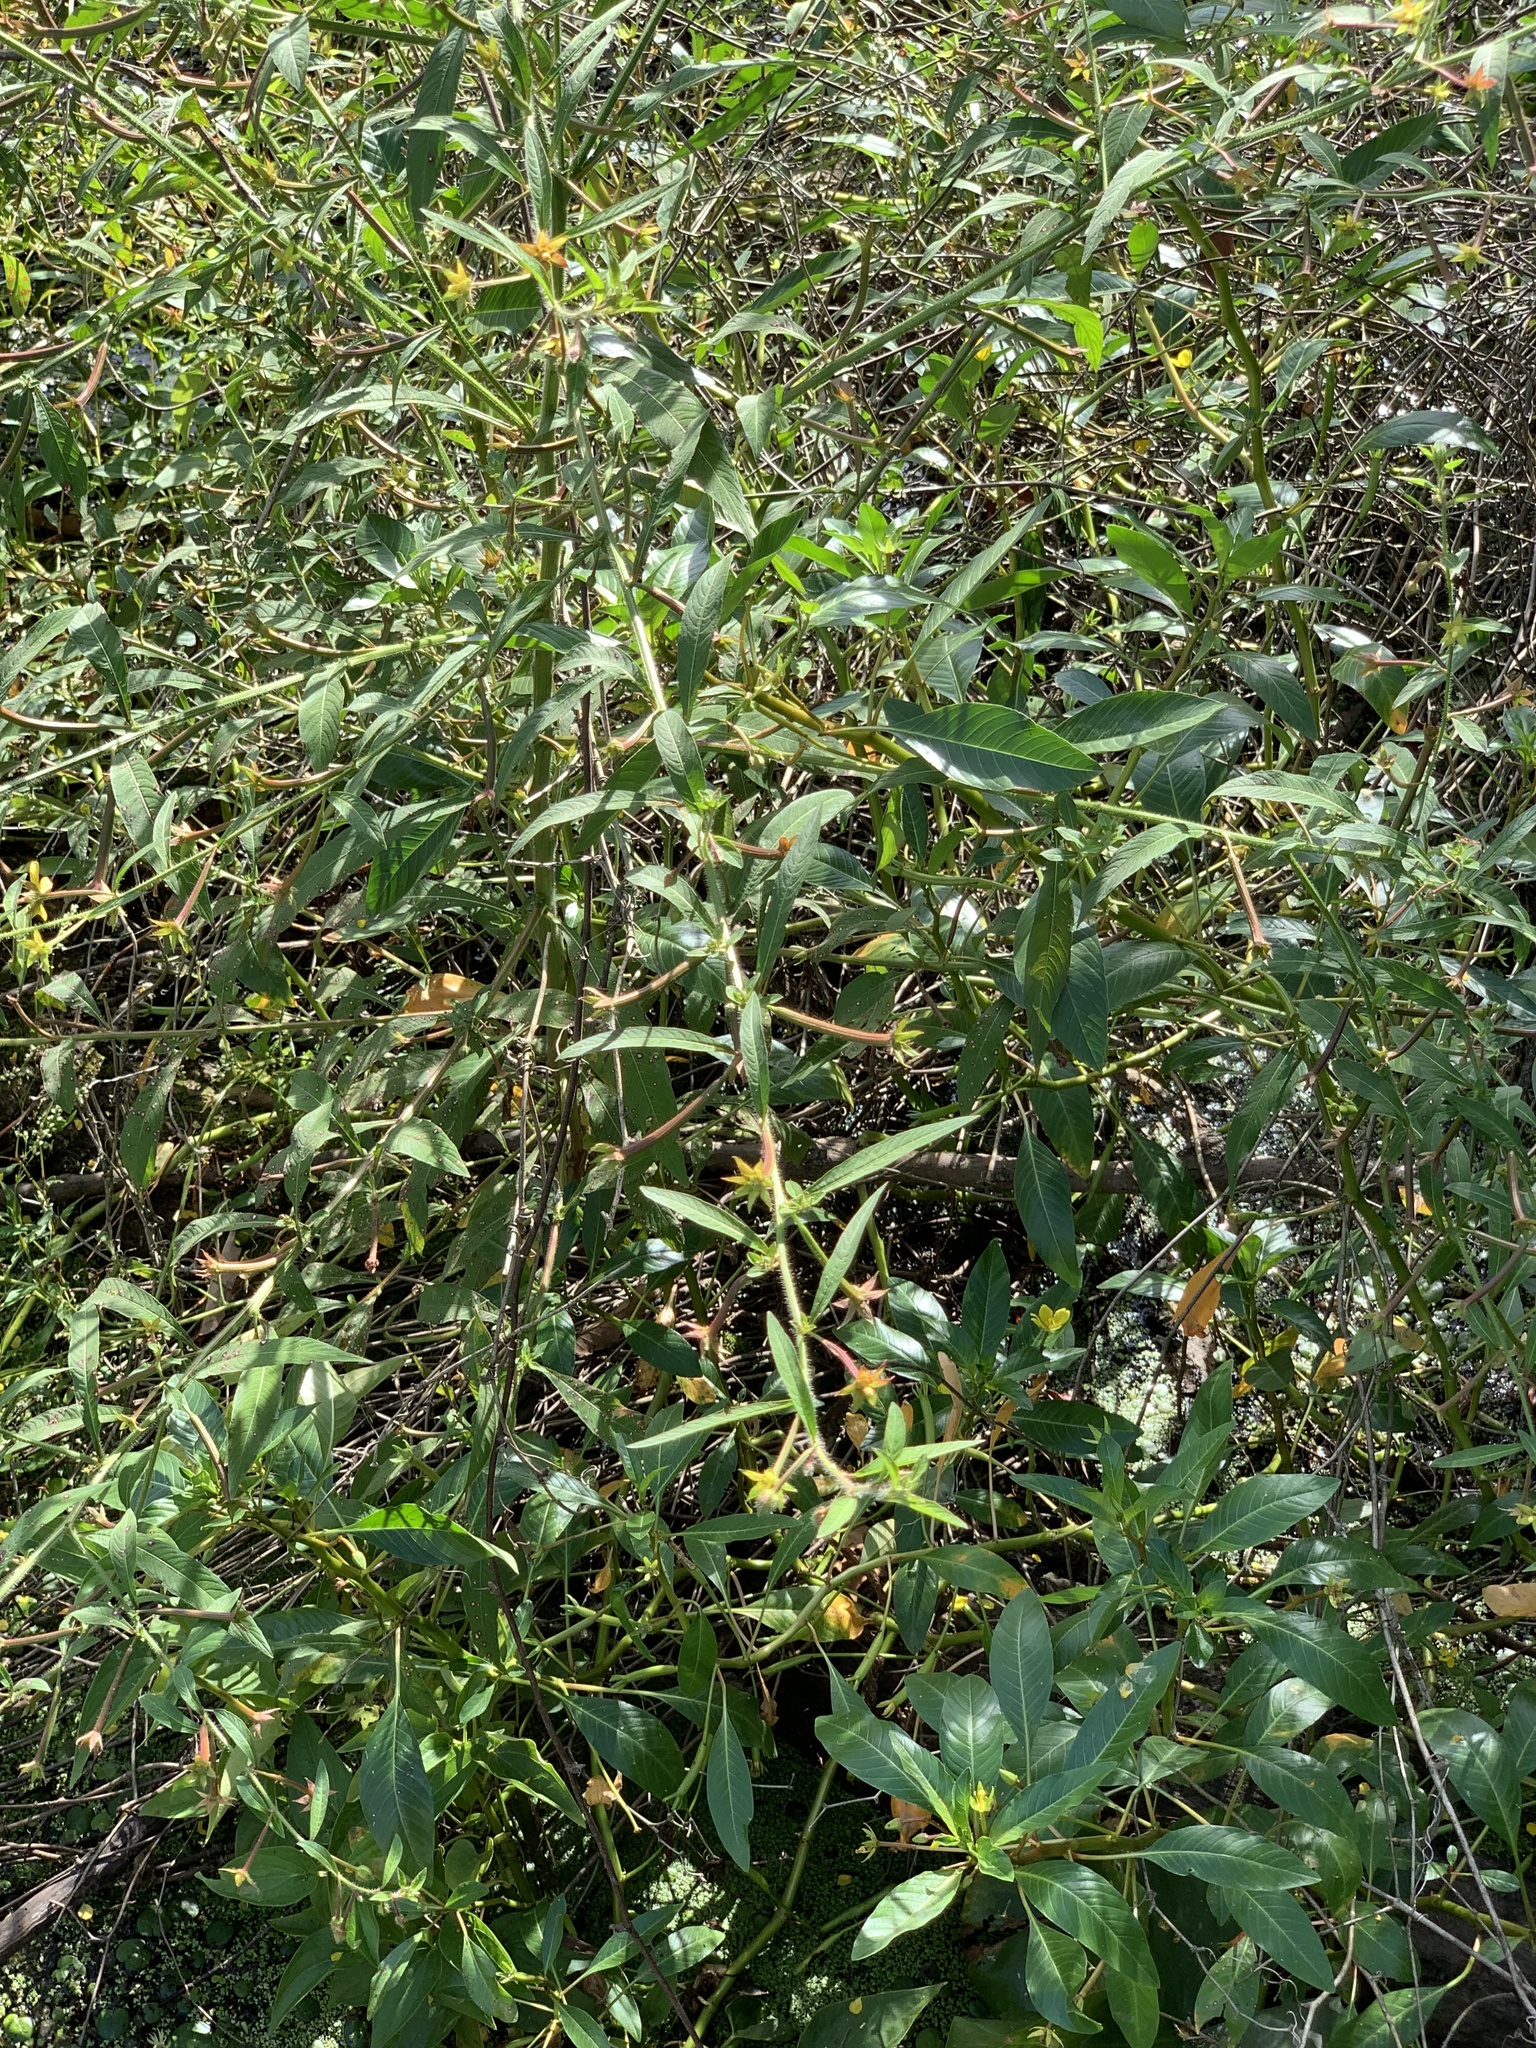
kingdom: Plantae
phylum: Tracheophyta
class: Magnoliopsida
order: Myrtales
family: Onagraceae
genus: Ludwigia
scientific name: Ludwigia leptocarpa
